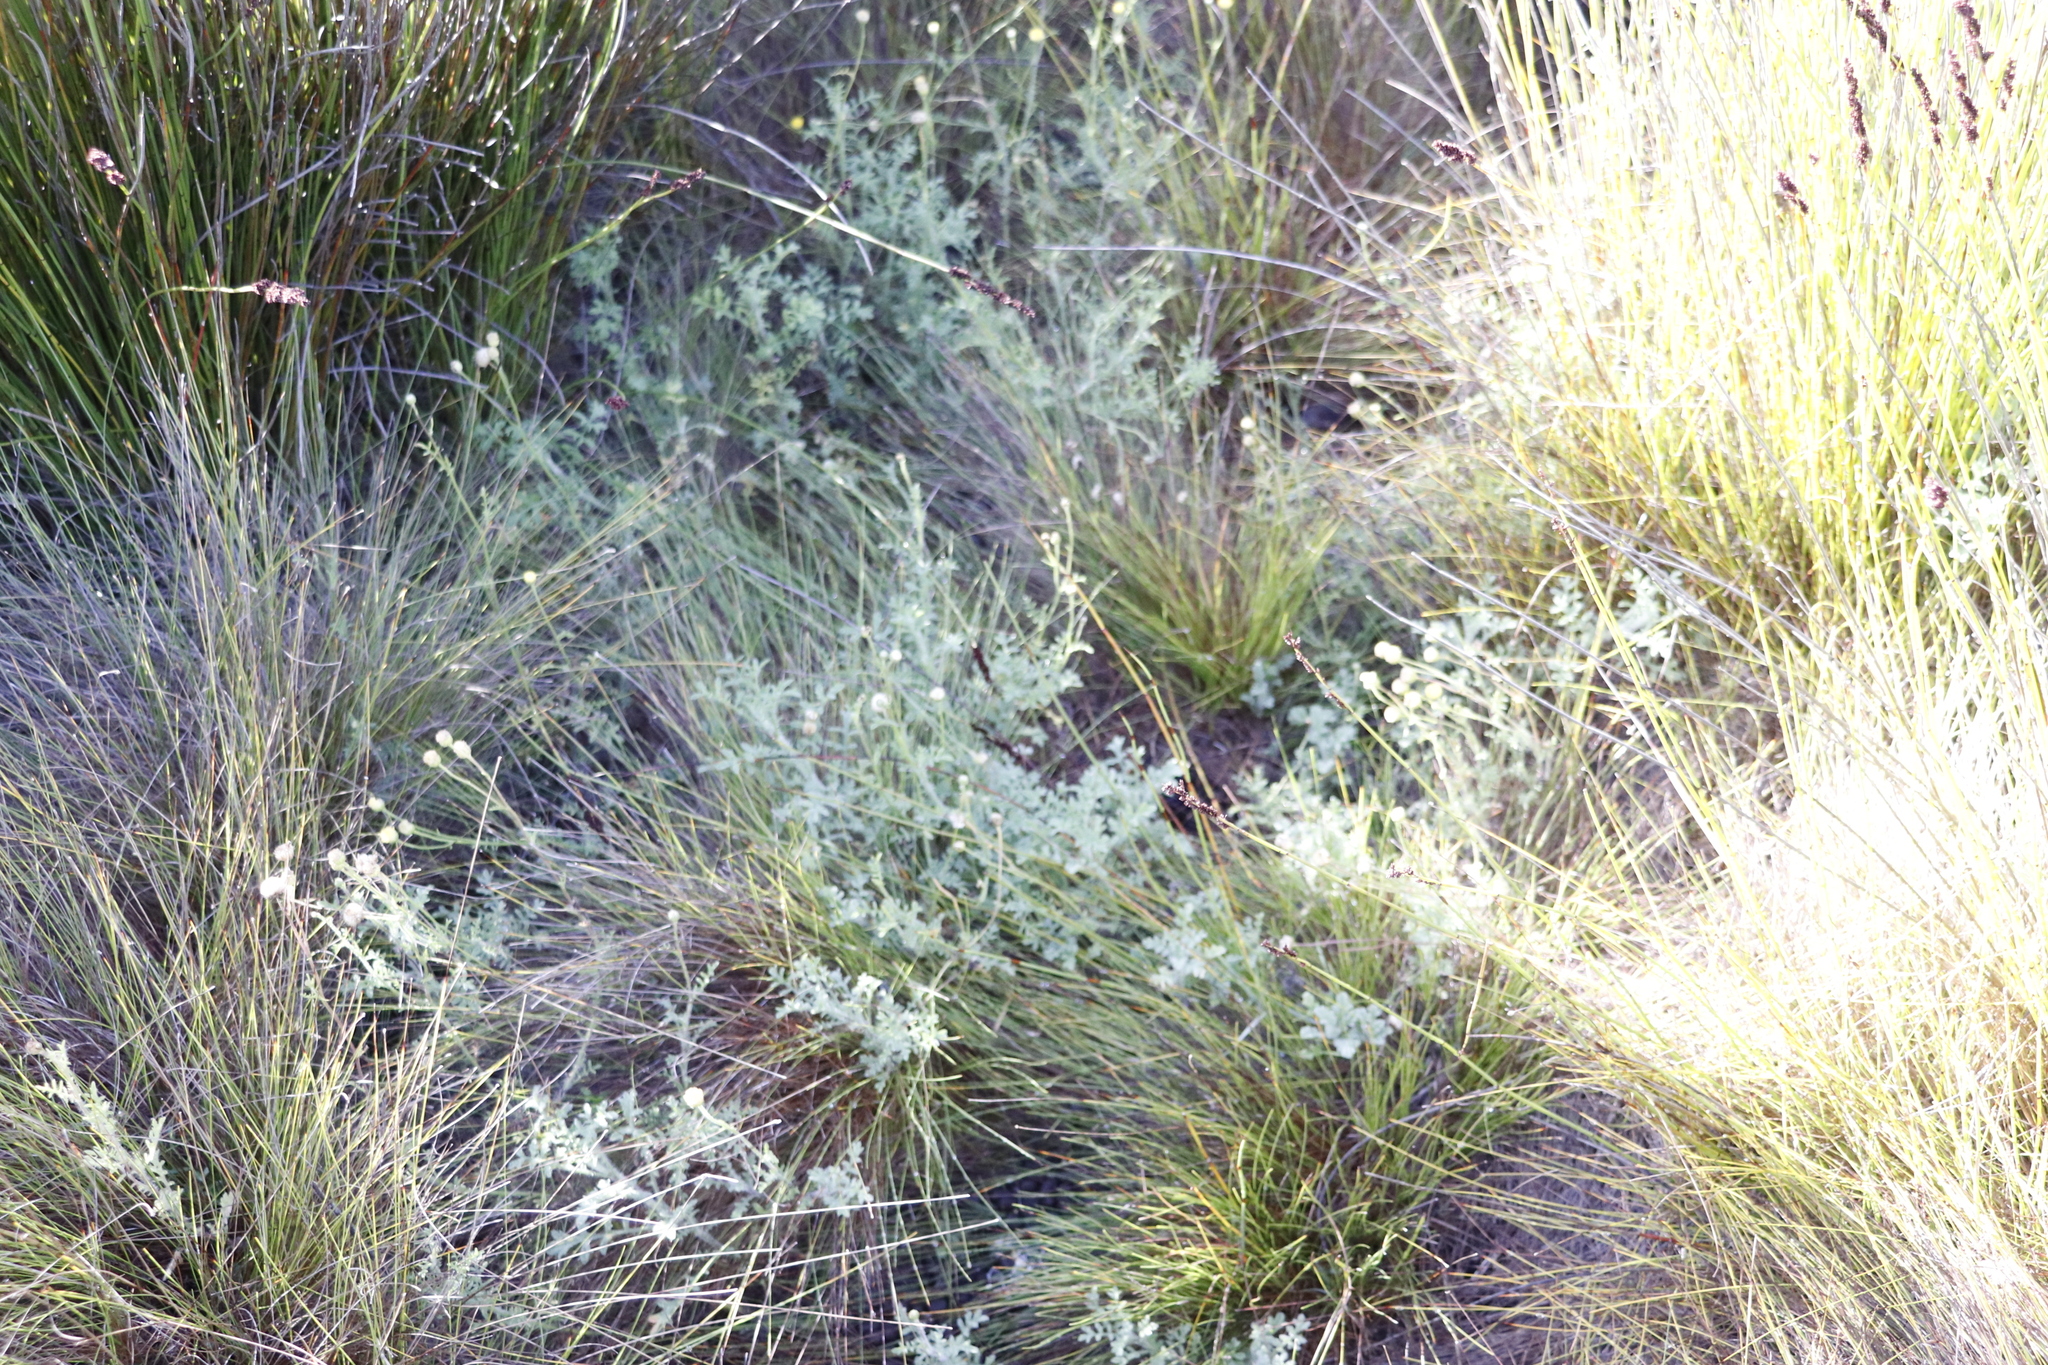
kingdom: Plantae
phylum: Tracheophyta
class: Magnoliopsida
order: Asterales
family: Asteraceae
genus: Nidorella
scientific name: Nidorella pinnatifida
